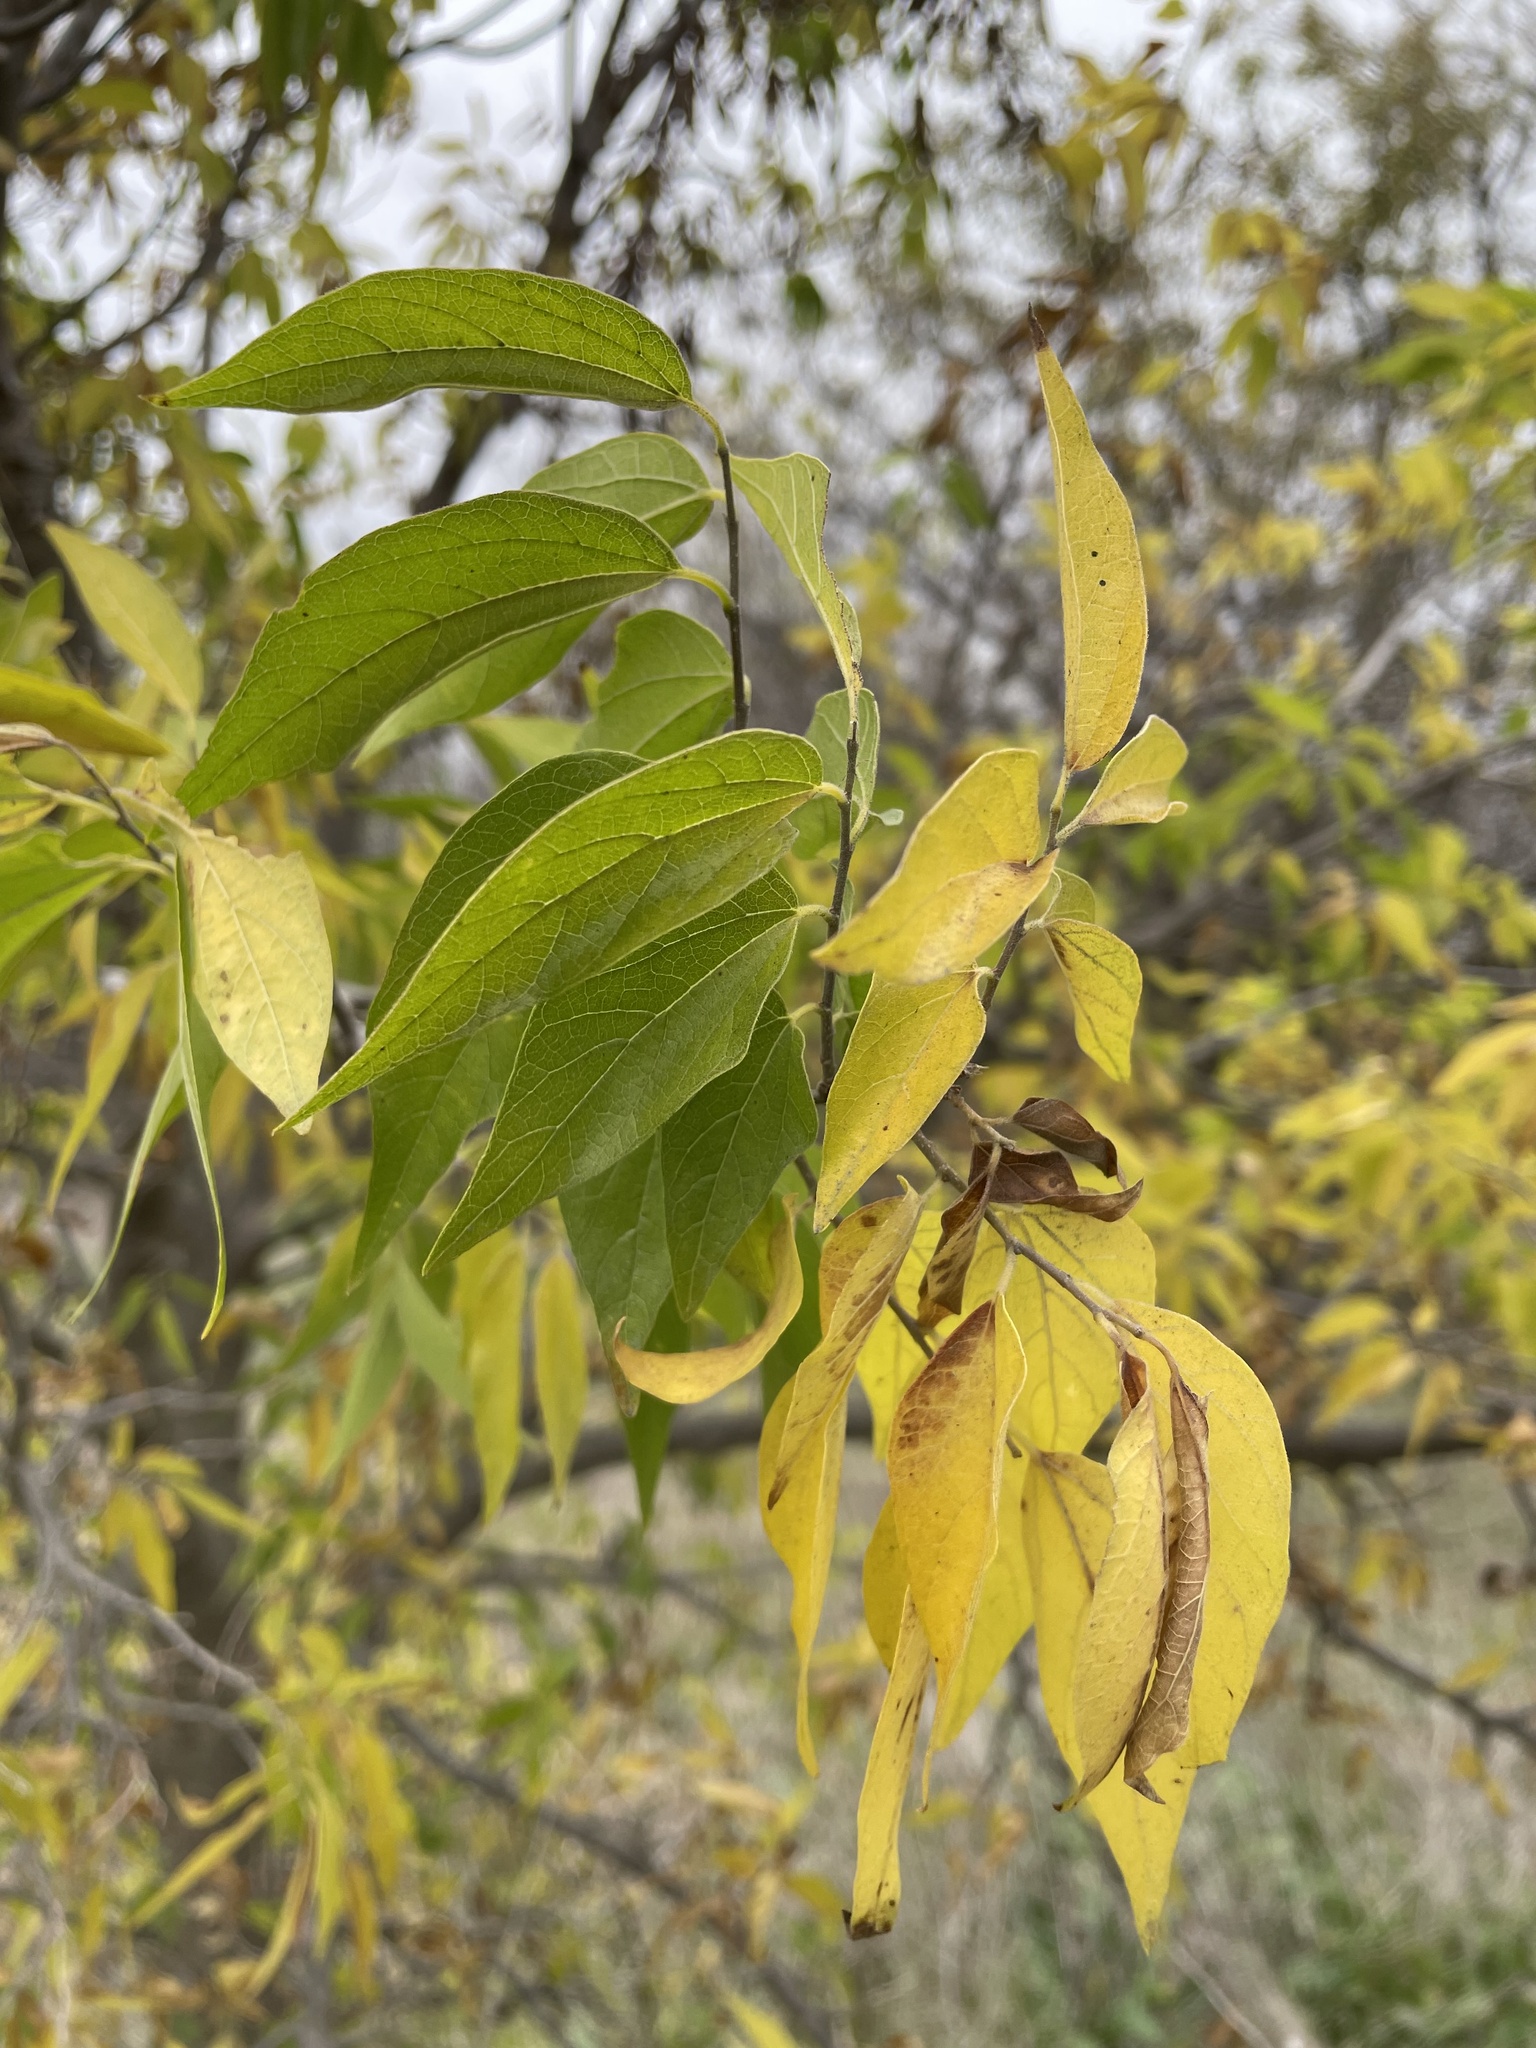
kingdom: Plantae
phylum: Tracheophyta
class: Magnoliopsida
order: Rosales
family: Cannabaceae
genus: Celtis
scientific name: Celtis laevigata
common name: Sugarberry
